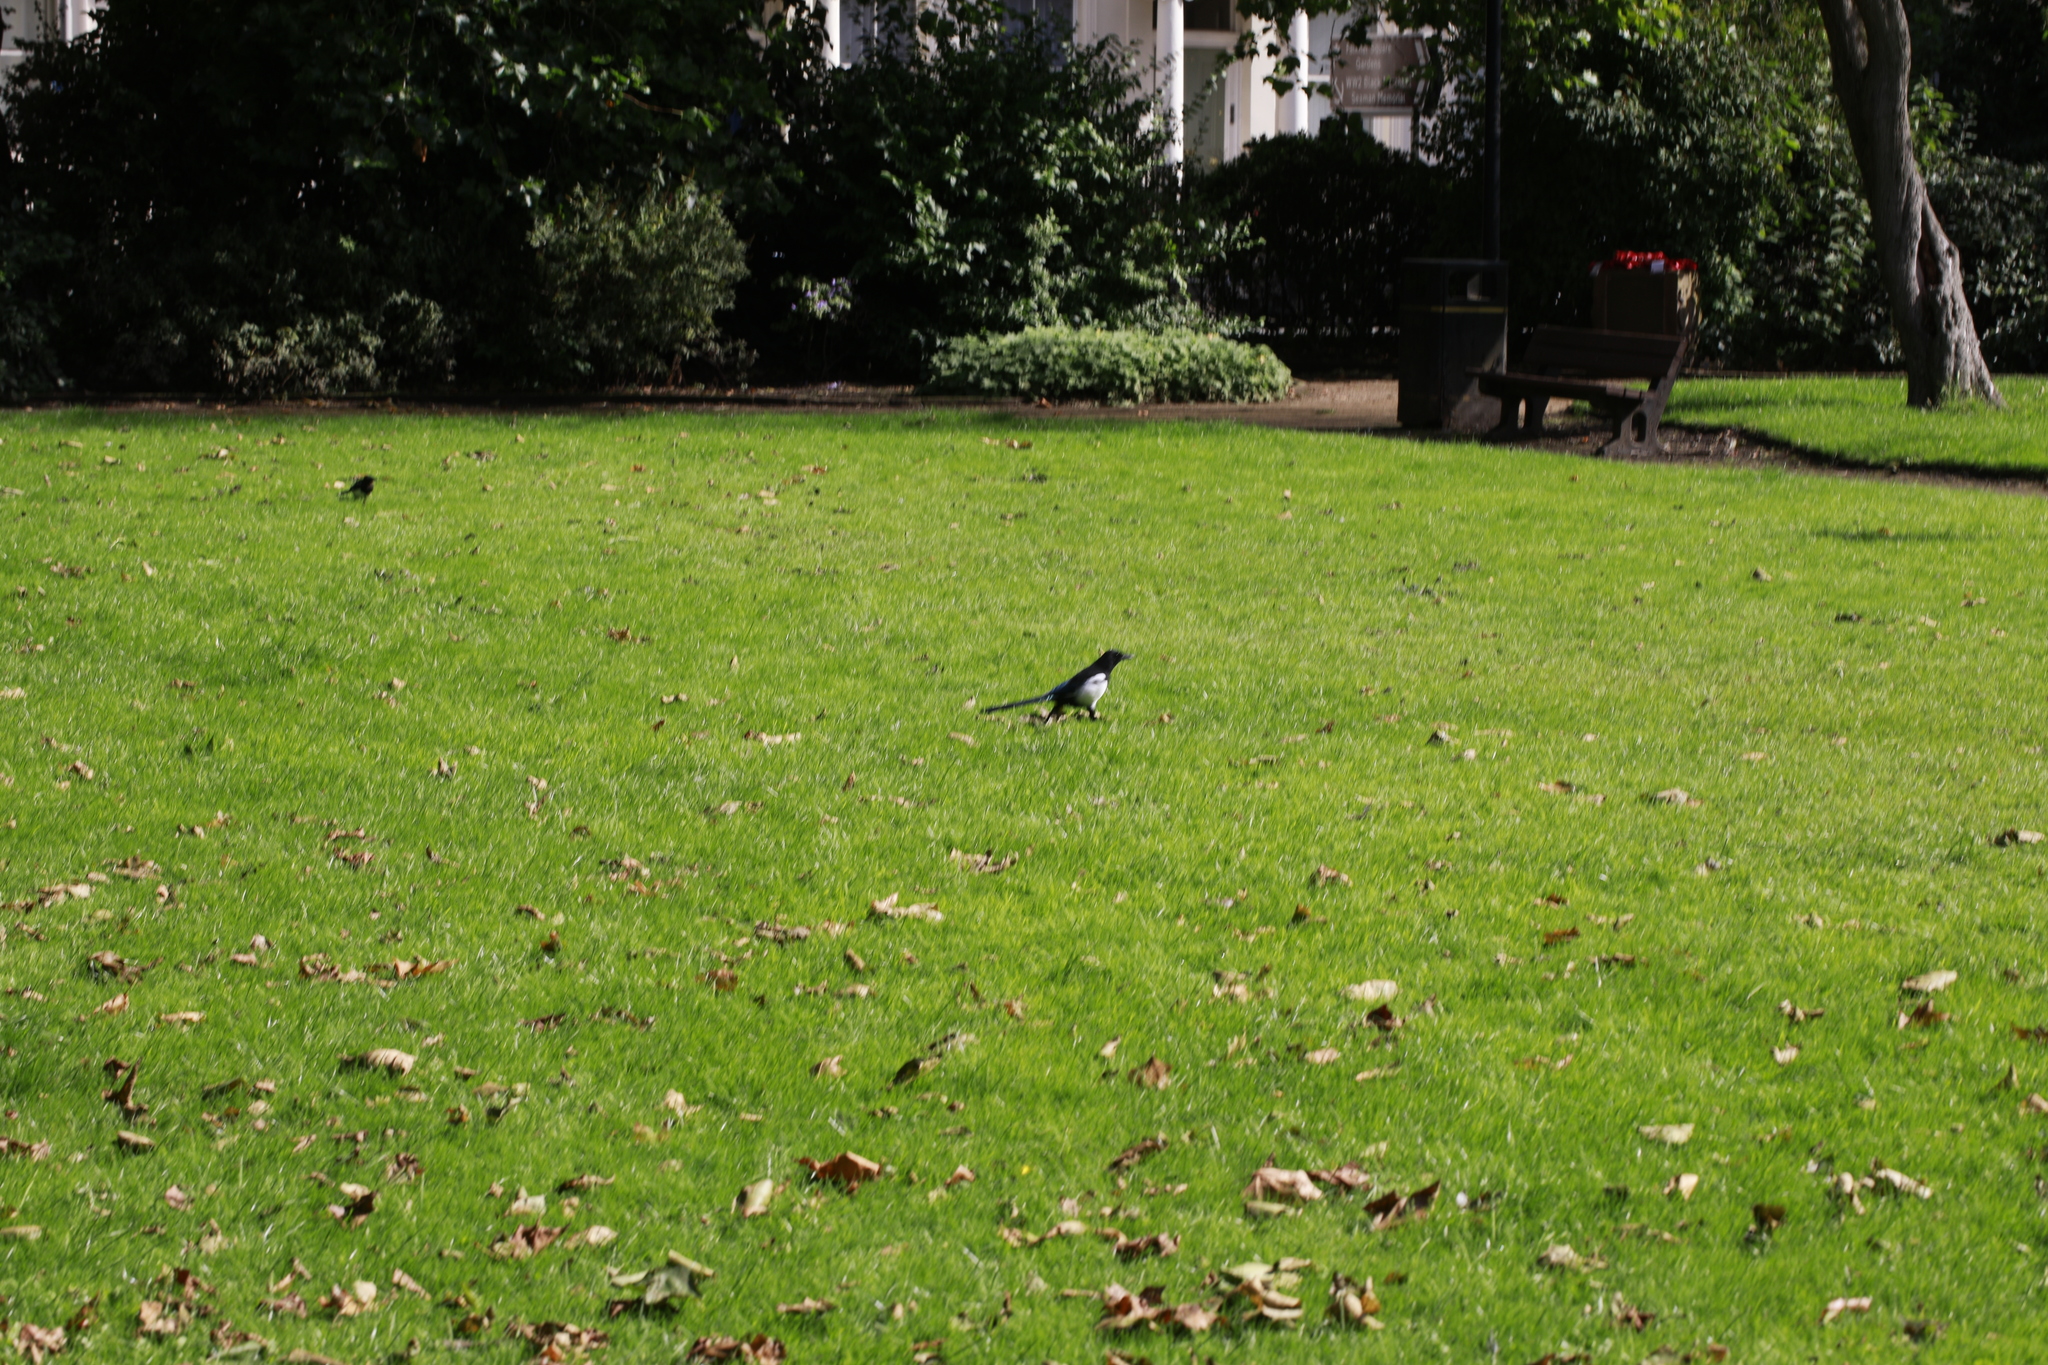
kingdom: Animalia
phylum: Chordata
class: Aves
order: Passeriformes
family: Corvidae
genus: Pica
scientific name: Pica pica
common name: Eurasian magpie
